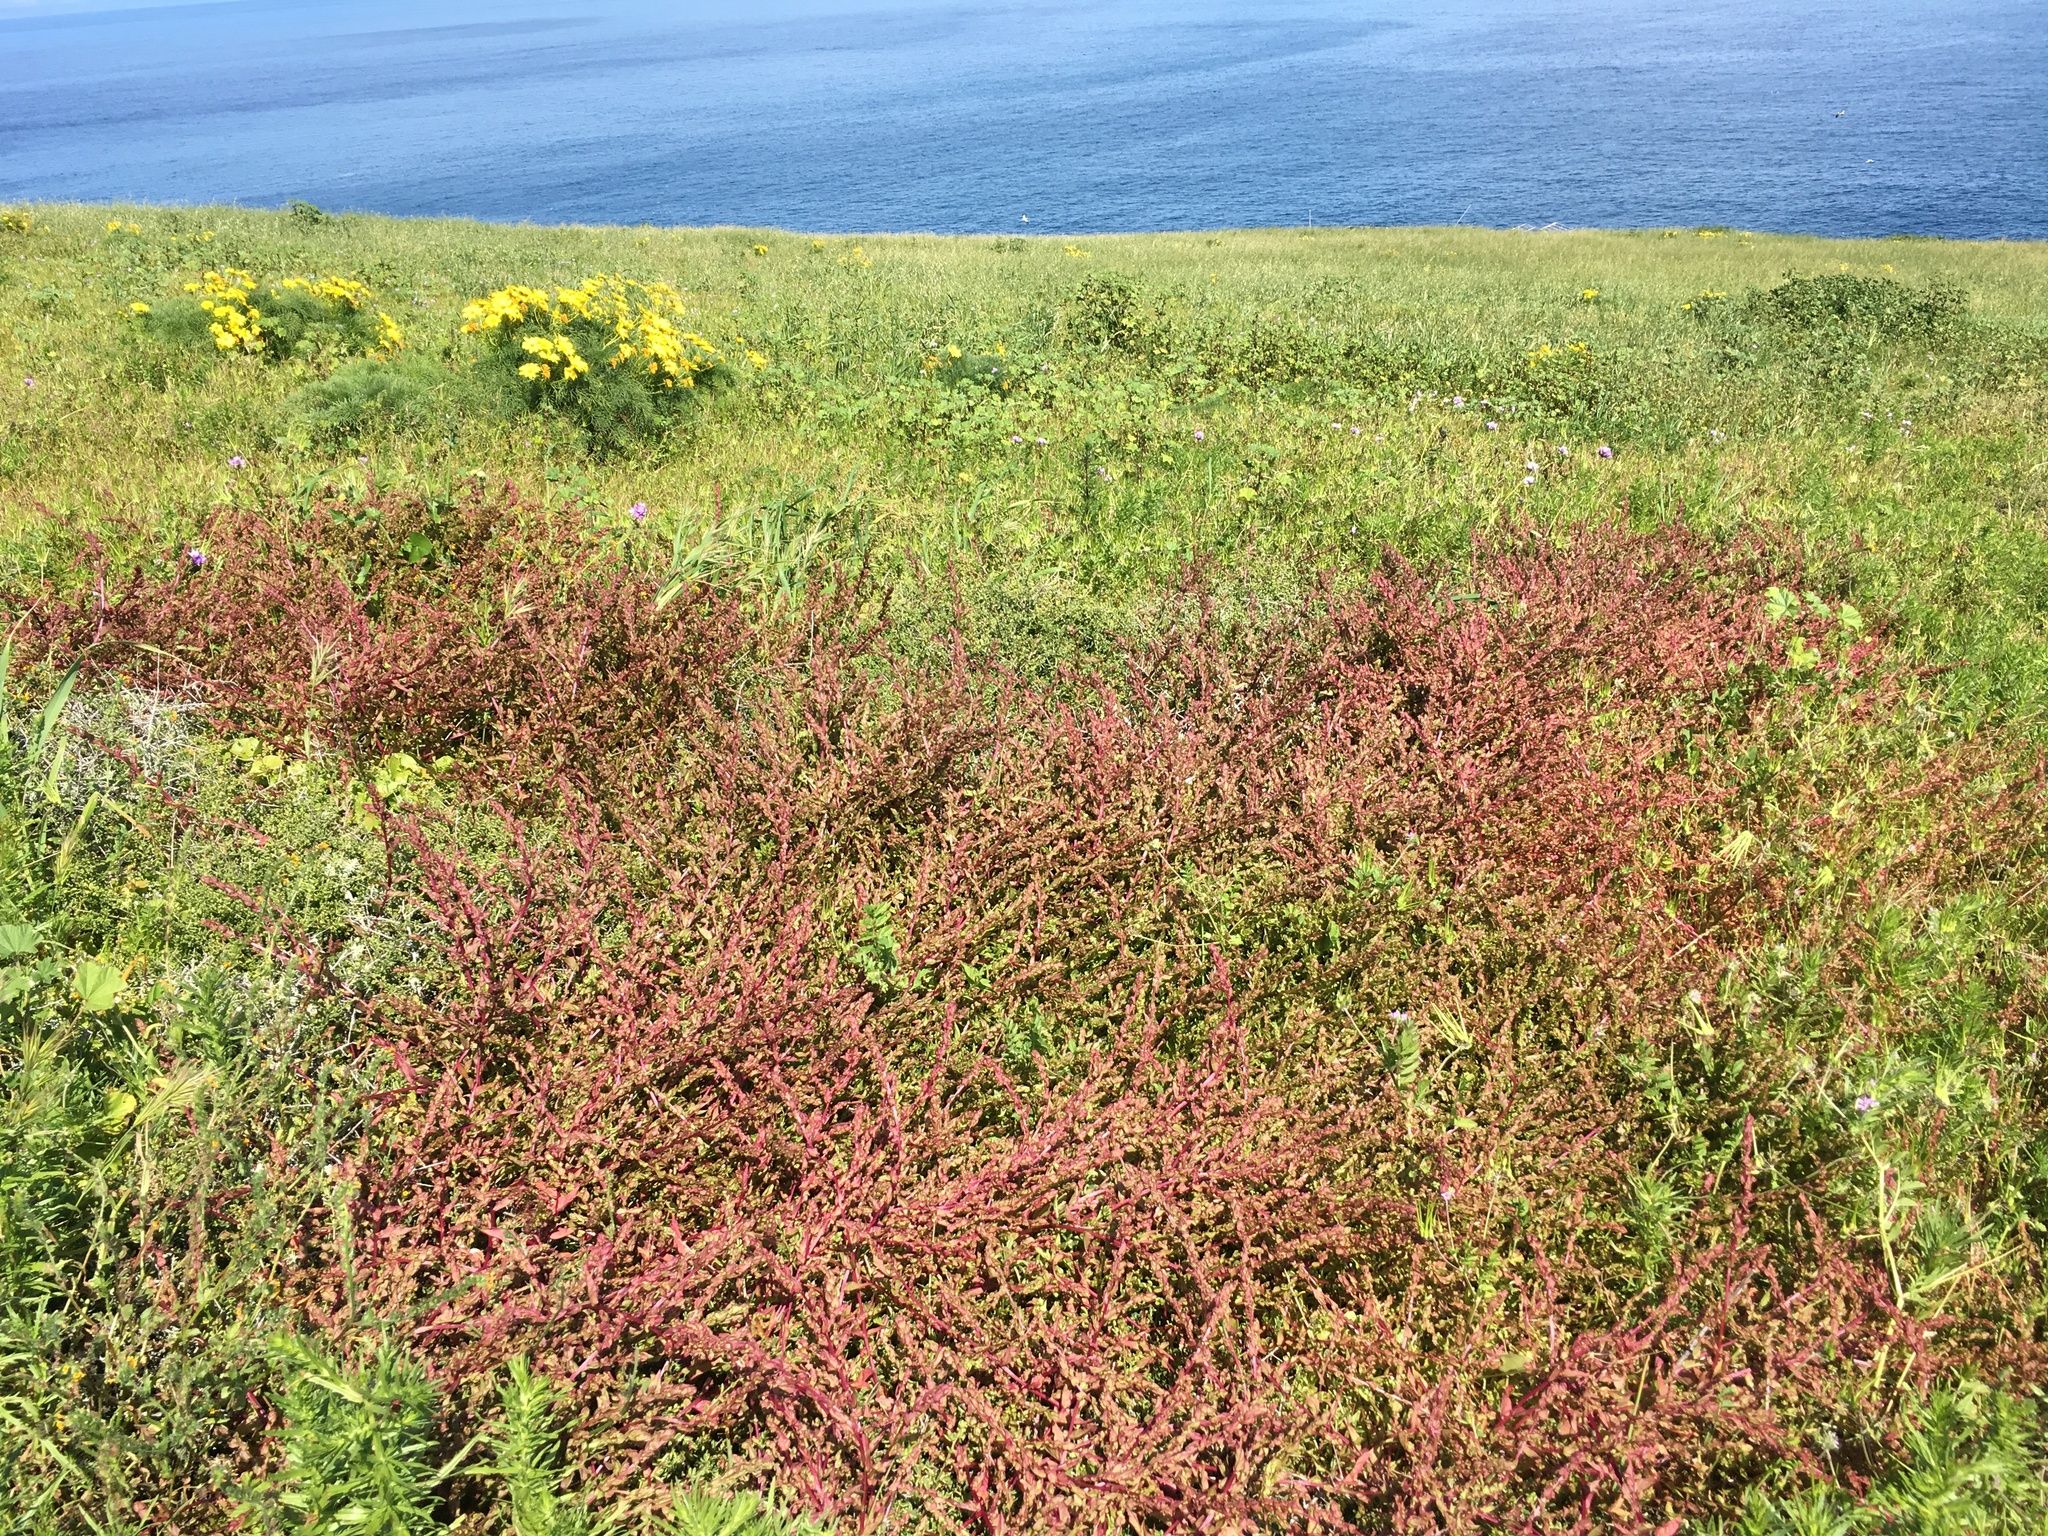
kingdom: Plantae
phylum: Tracheophyta
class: Magnoliopsida
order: Caryophyllales
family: Amaranthaceae
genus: Aphanisma
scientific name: Aphanisma blitoides
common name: Aphanisma
